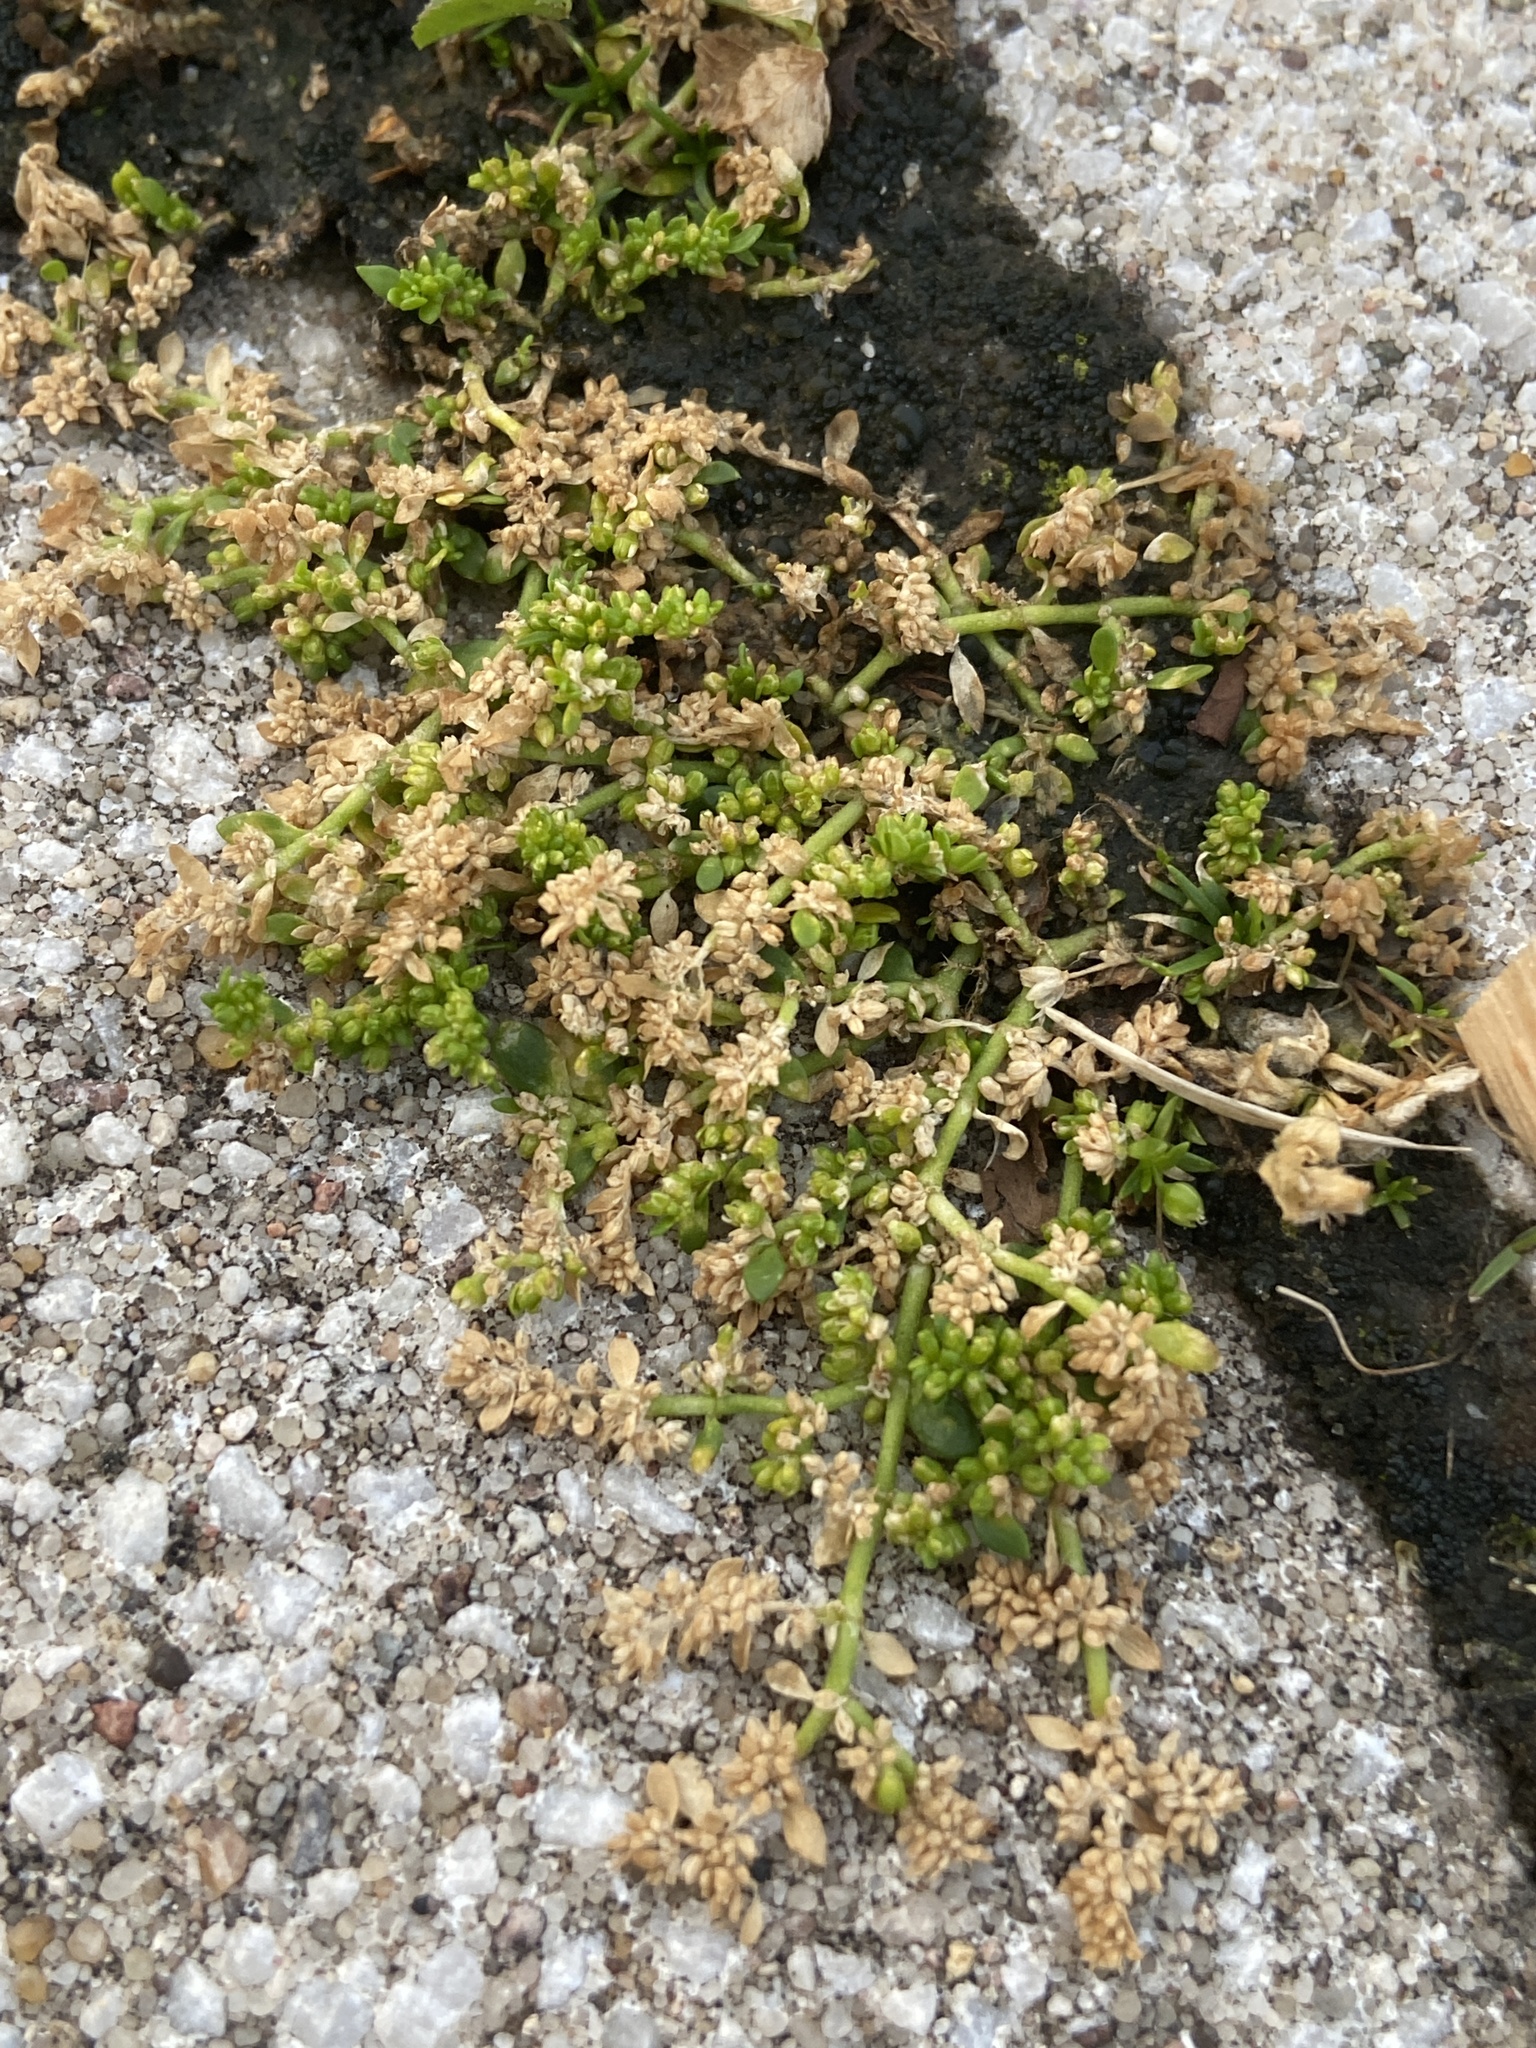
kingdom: Plantae
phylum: Tracheophyta
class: Magnoliopsida
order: Caryophyllales
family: Caryophyllaceae
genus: Herniaria
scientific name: Herniaria glabra
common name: Smooth rupturewort
